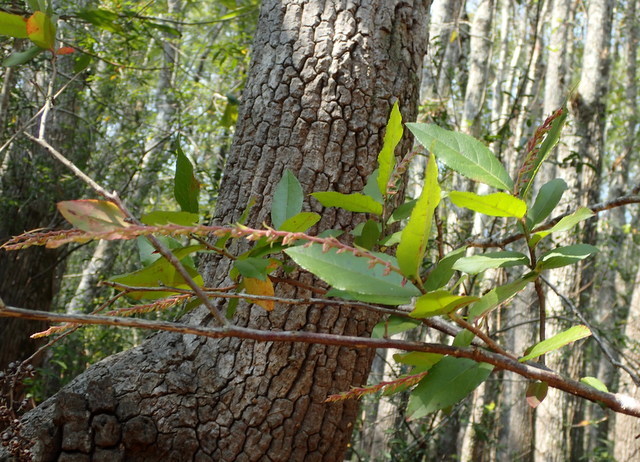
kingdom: Plantae
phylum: Tracheophyta
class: Magnoliopsida
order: Ericales
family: Ericaceae
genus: Eubotrys
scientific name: Eubotrys racemosa
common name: Fetterbush
